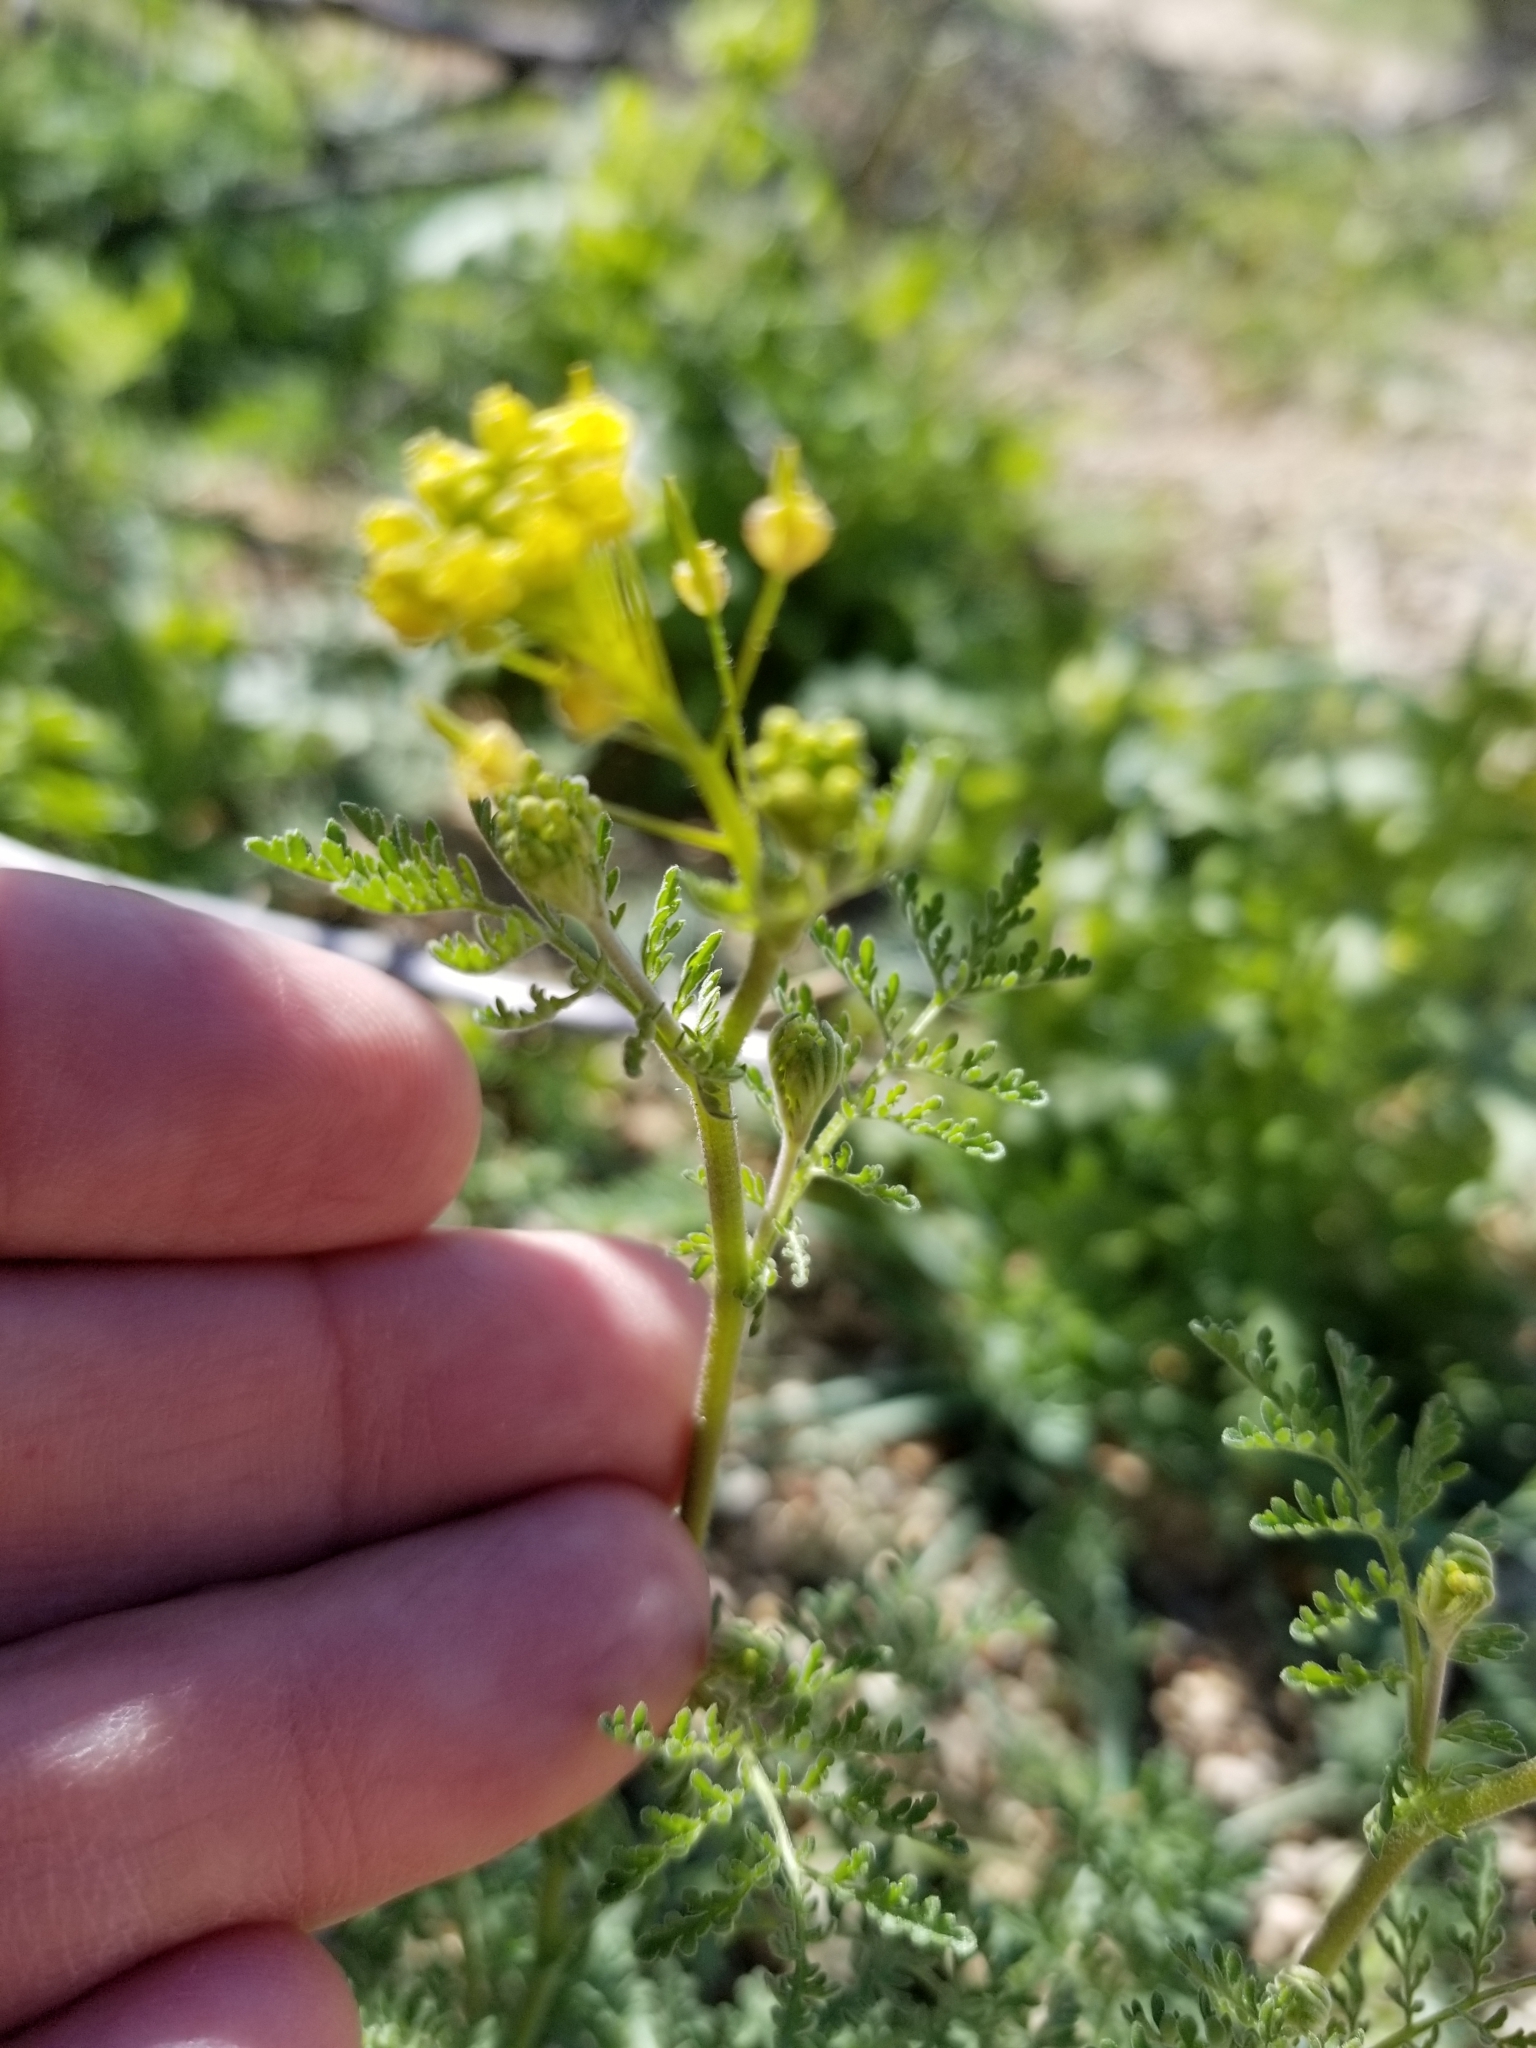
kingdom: Plantae
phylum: Tracheophyta
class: Magnoliopsida
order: Brassicales
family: Brassicaceae
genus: Descurainia
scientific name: Descurainia pinnata
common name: Western tansy mustard
